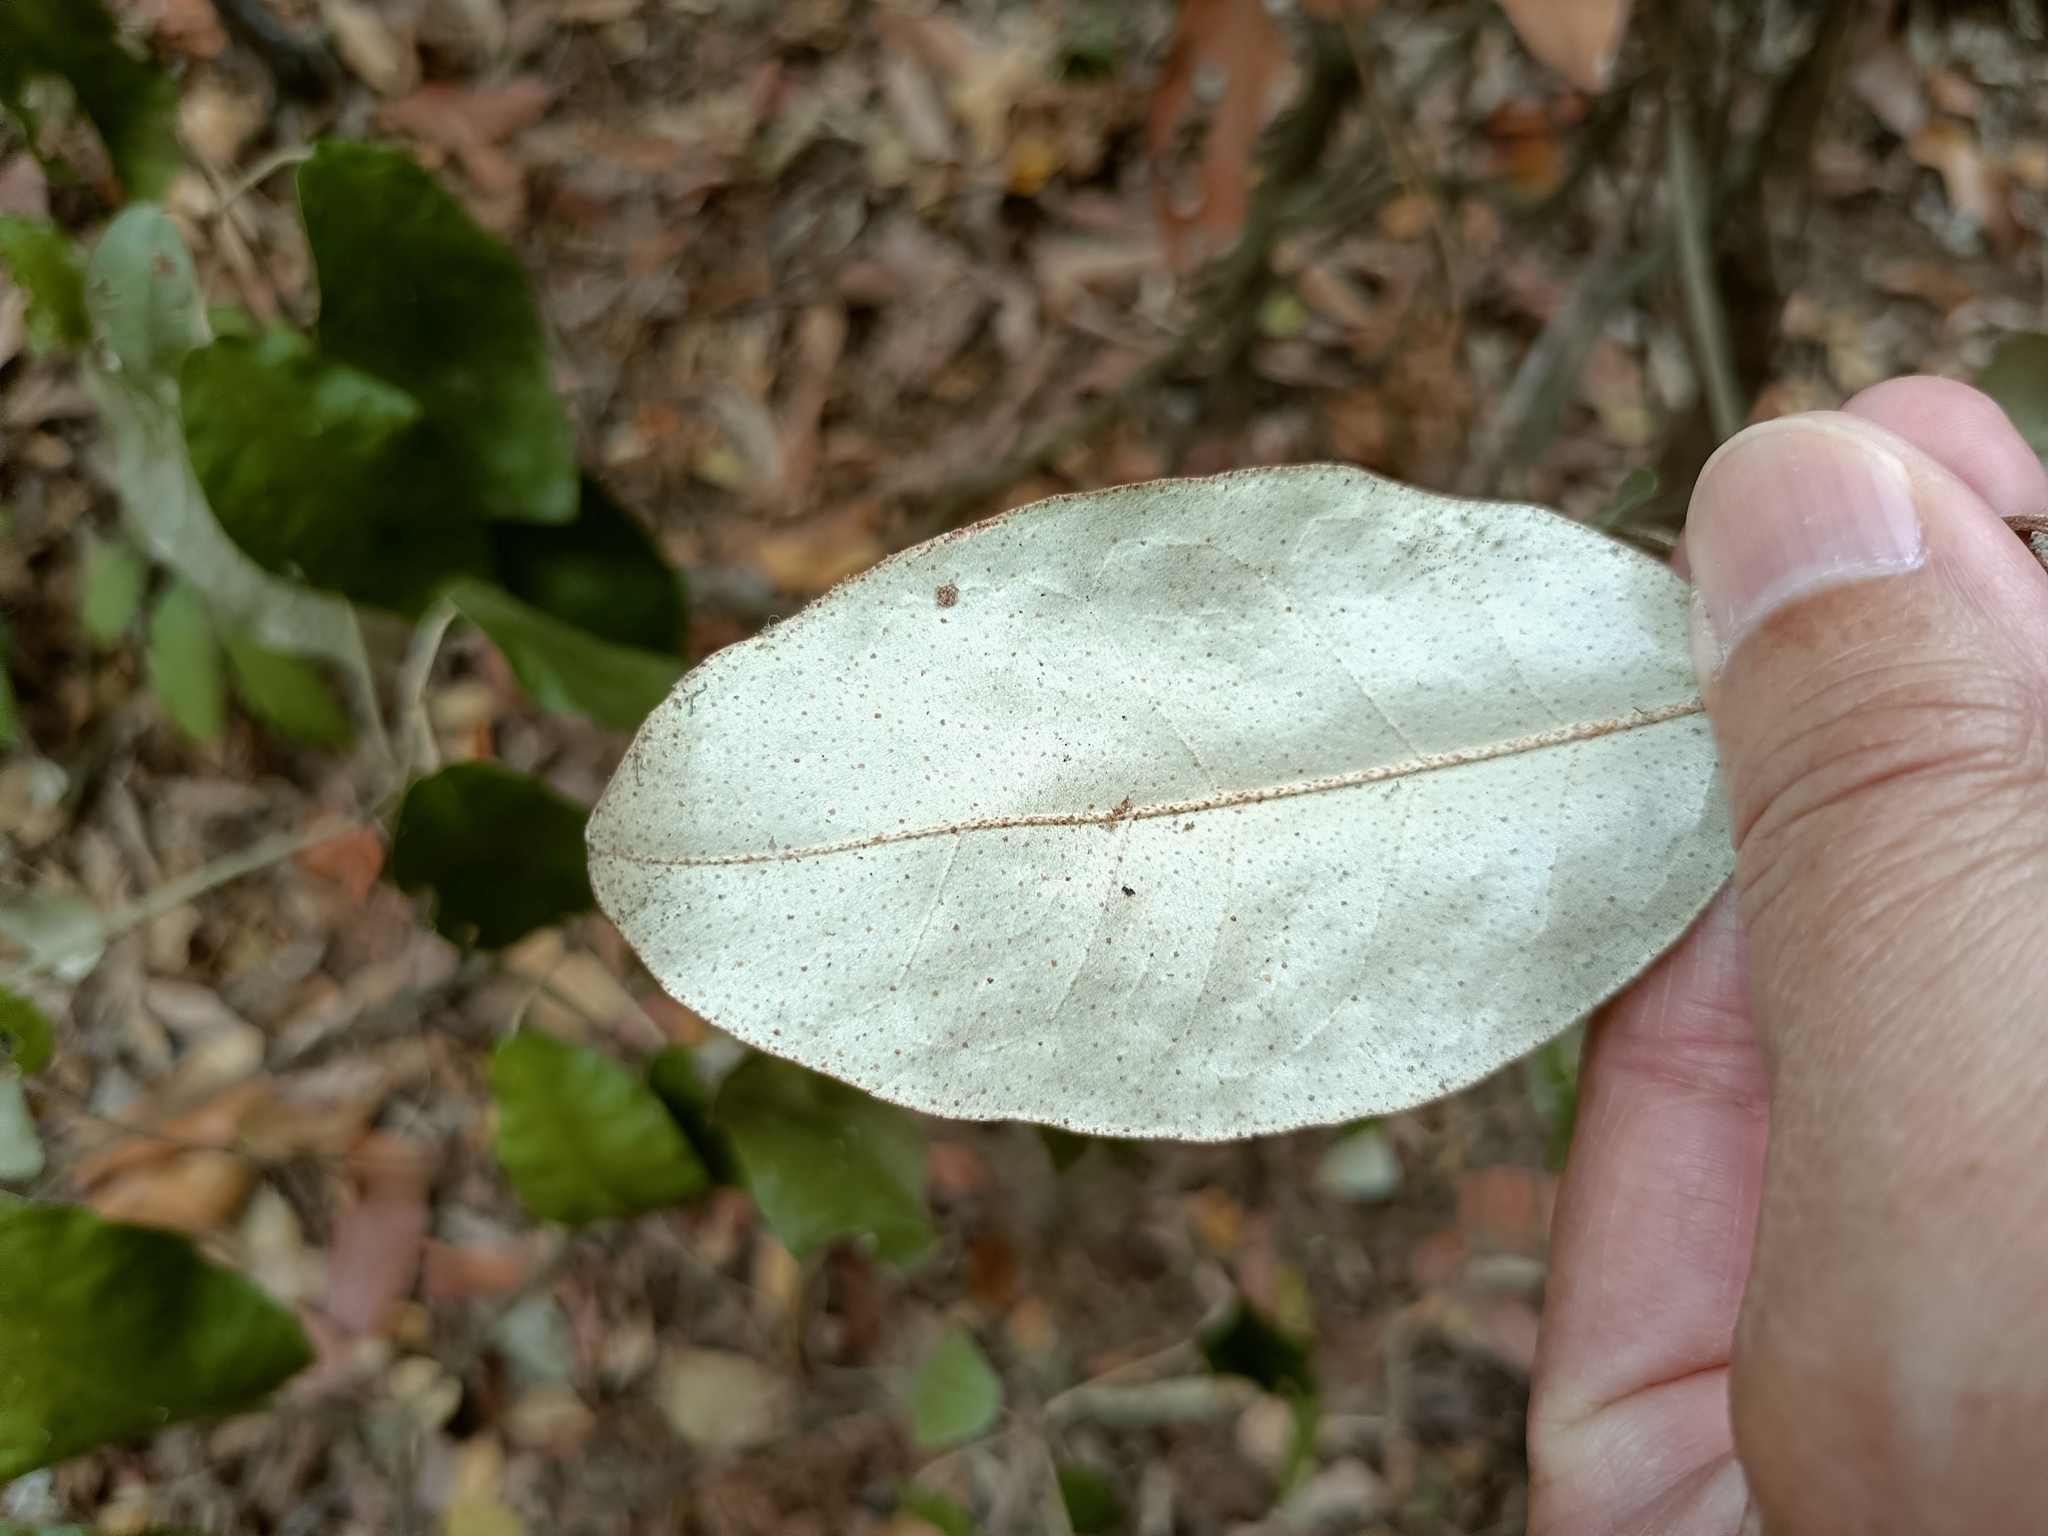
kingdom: Plantae
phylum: Tracheophyta
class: Magnoliopsida
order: Malpighiales
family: Euphorbiaceae
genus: Croton
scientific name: Croton cascarilloides
